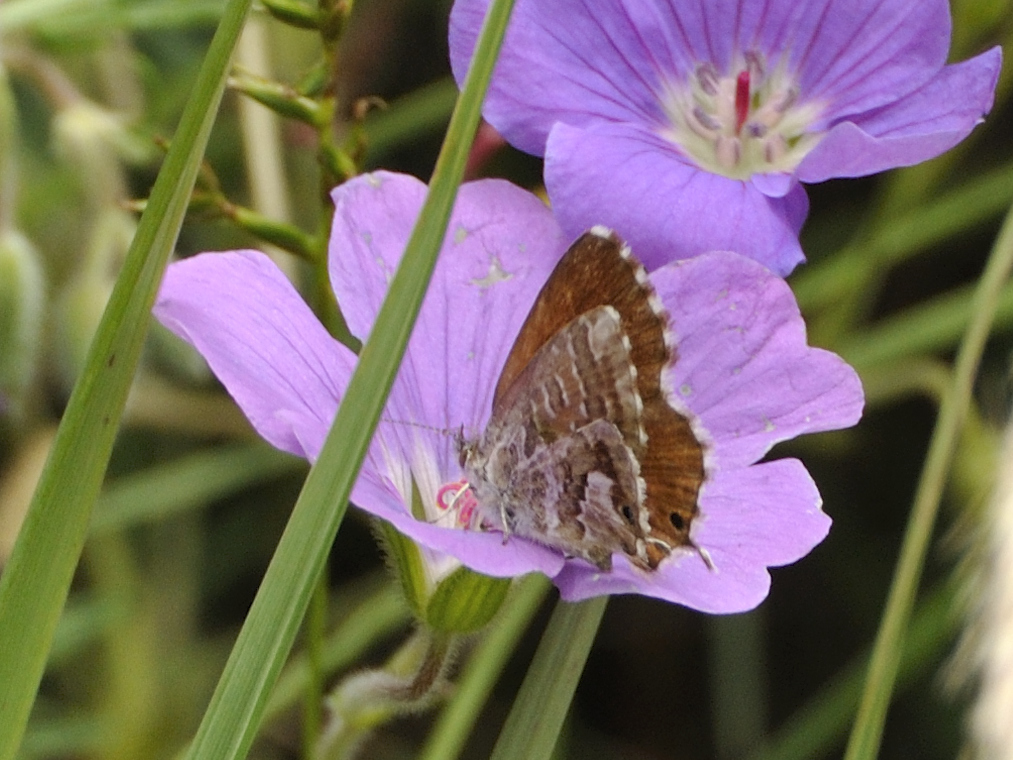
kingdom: Animalia
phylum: Arthropoda
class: Insecta
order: Lepidoptera
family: Lycaenidae
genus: Cacyreus
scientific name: Cacyreus fracta
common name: Water bronze
